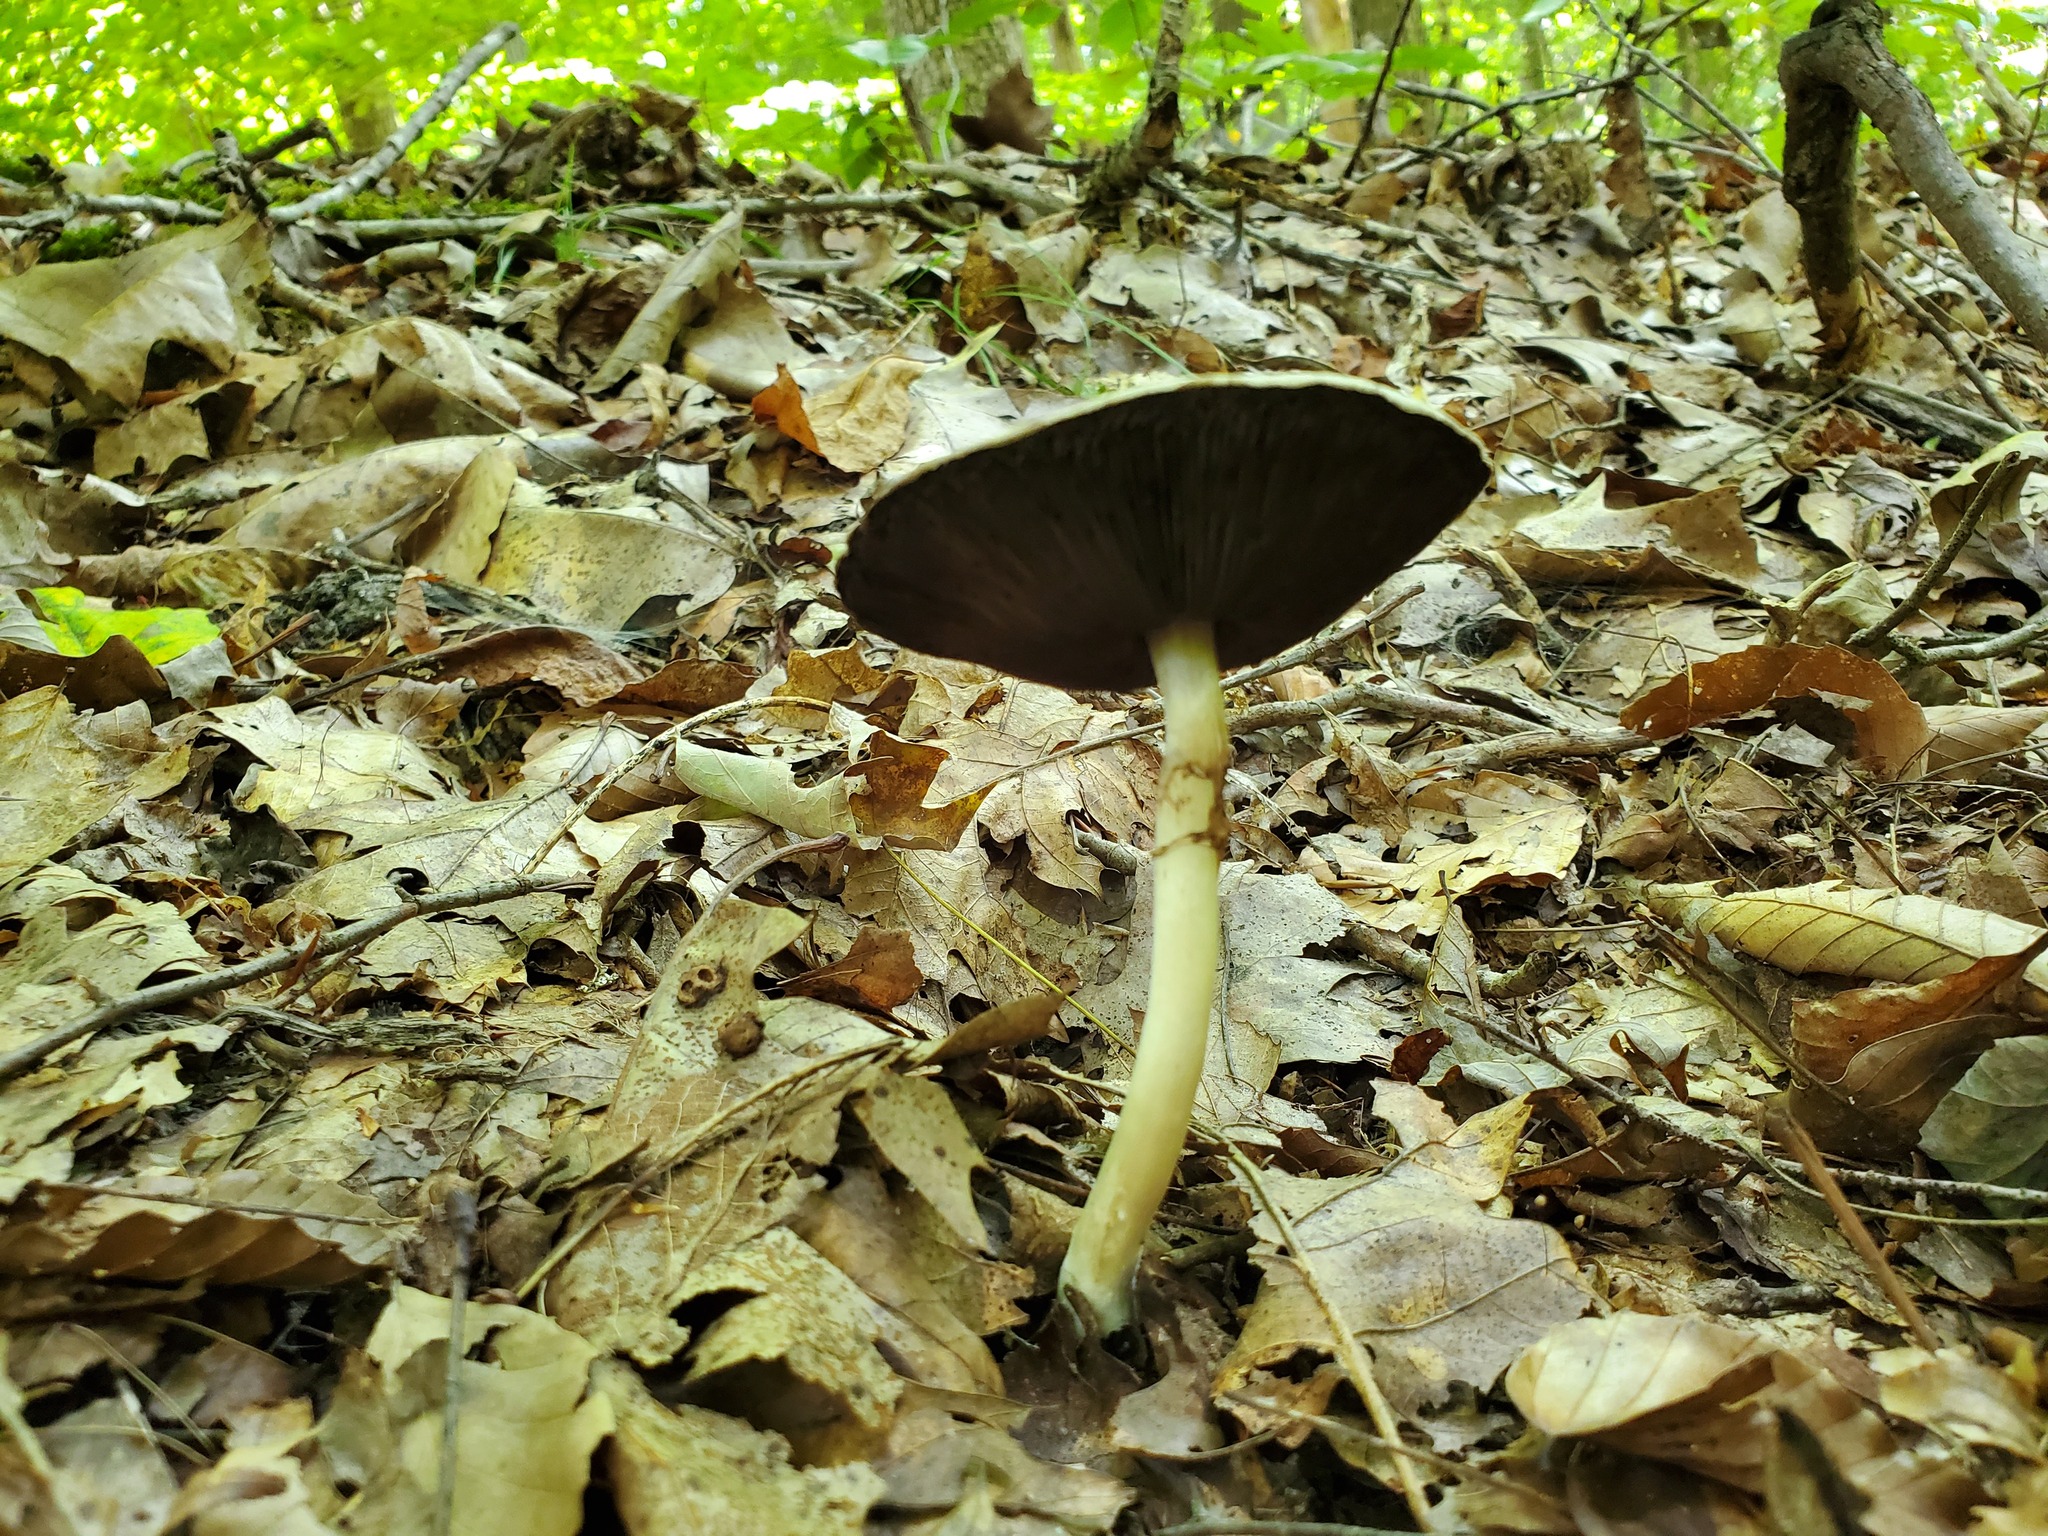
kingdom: Fungi
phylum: Basidiomycota
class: Agaricomycetes
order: Agaricales
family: Agaricaceae
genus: Agaricus
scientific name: Agaricus placomyces
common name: Inky mushroom
